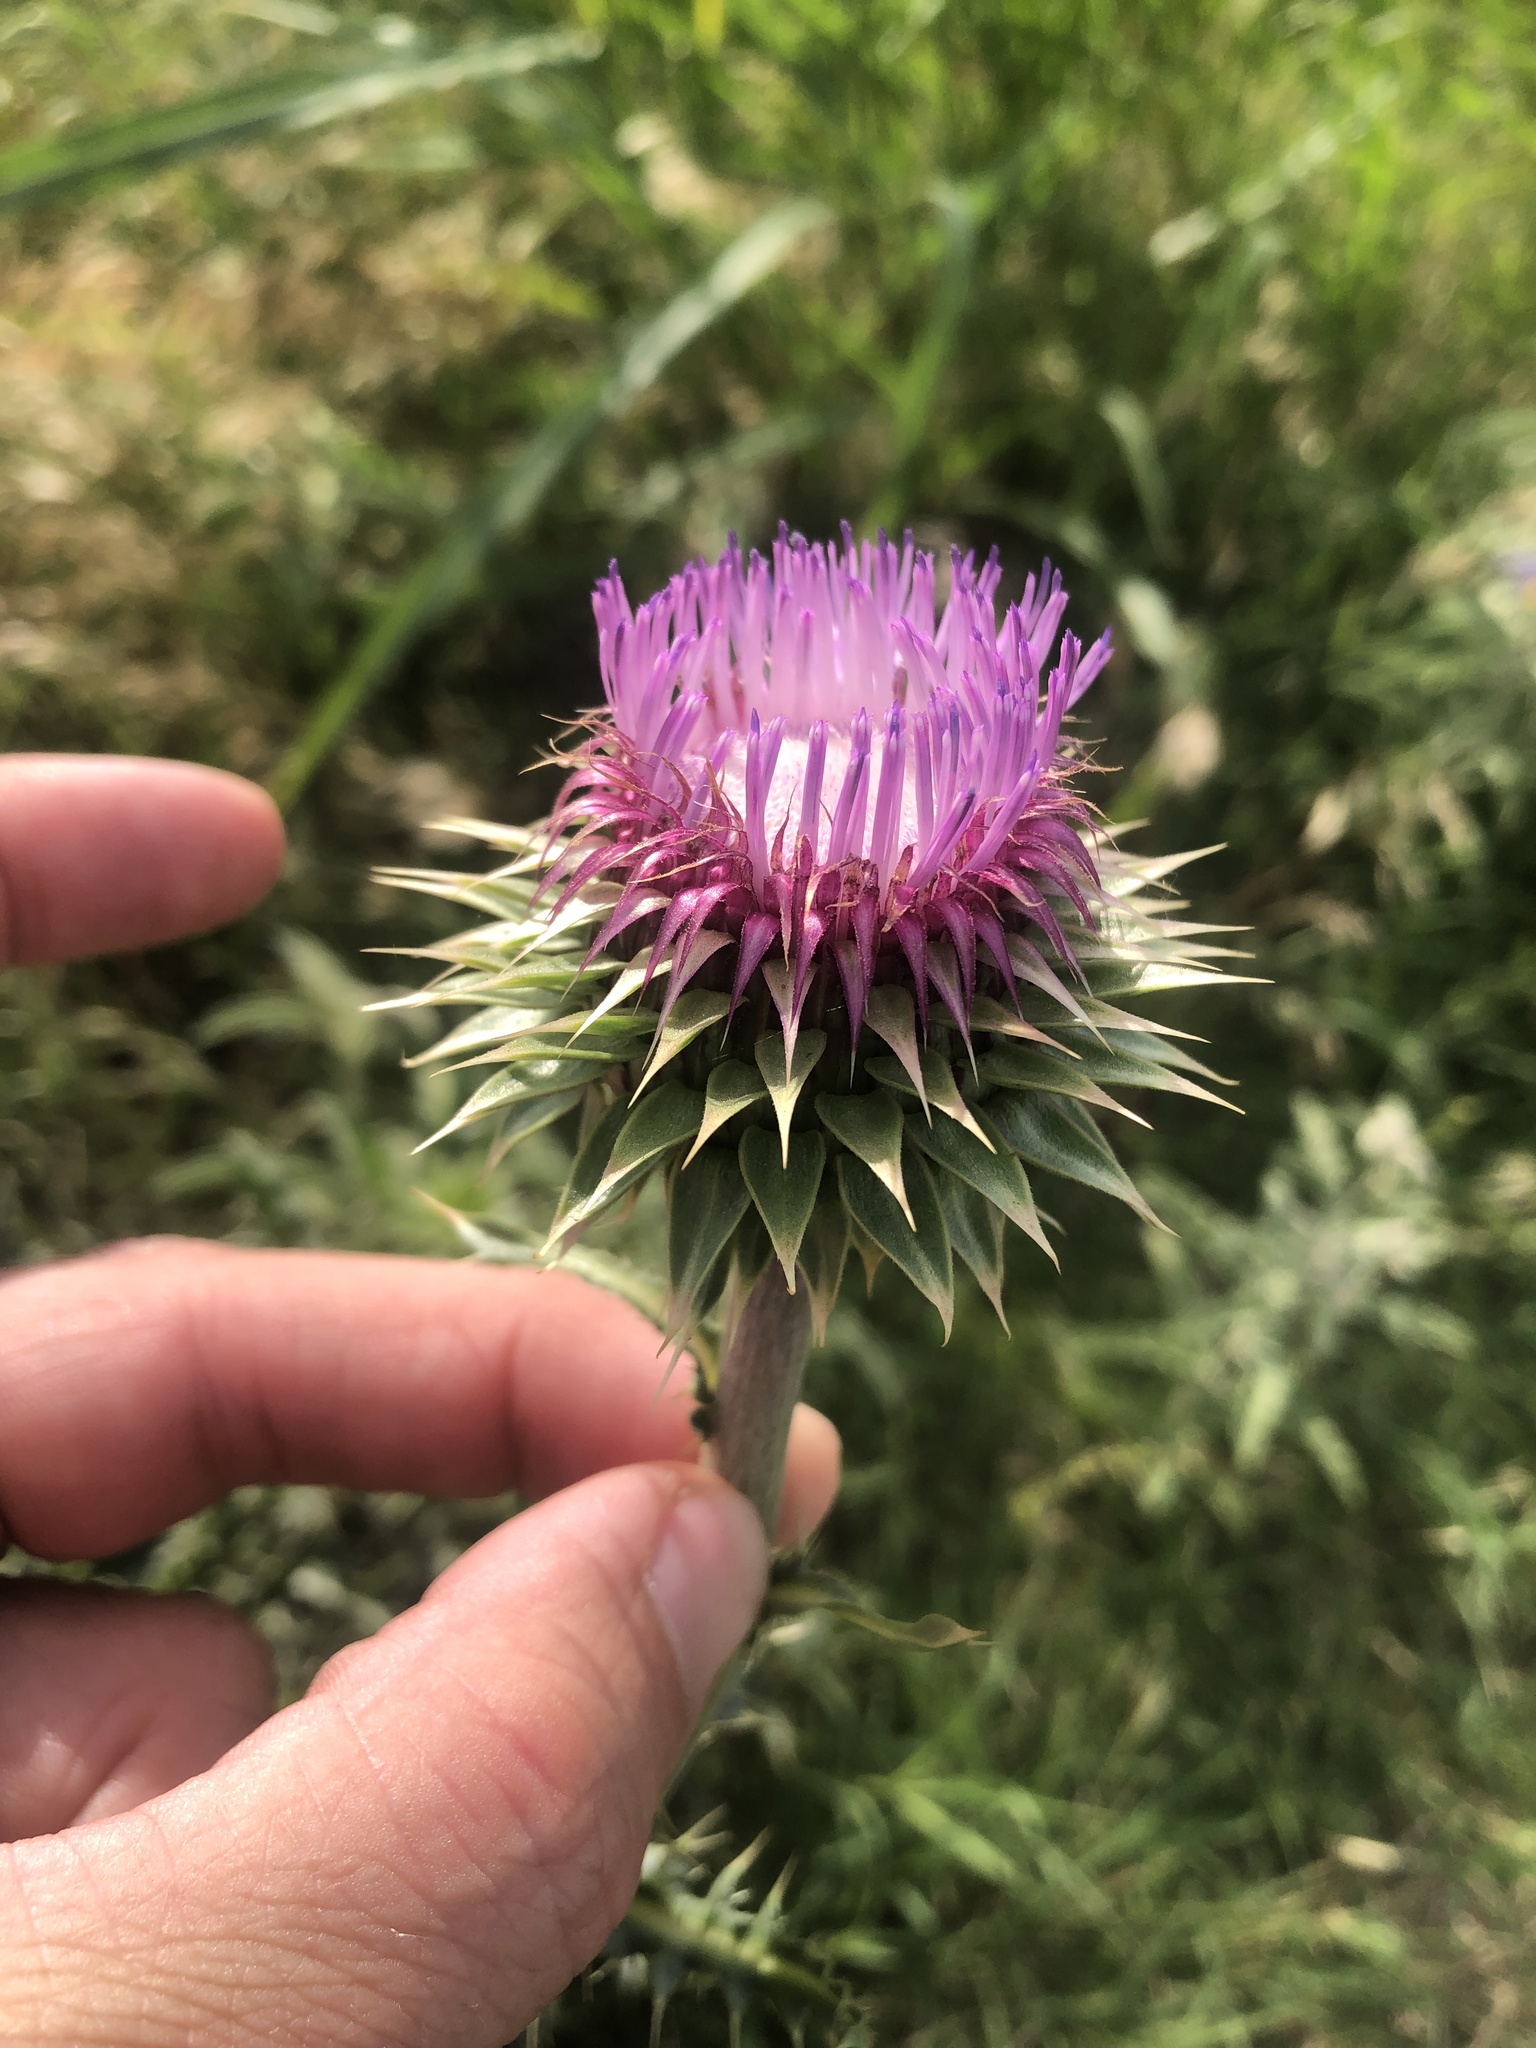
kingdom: Plantae
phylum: Tracheophyta
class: Magnoliopsida
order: Asterales
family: Asteraceae
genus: Carduus
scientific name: Carduus nutans
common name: Musk thistle
